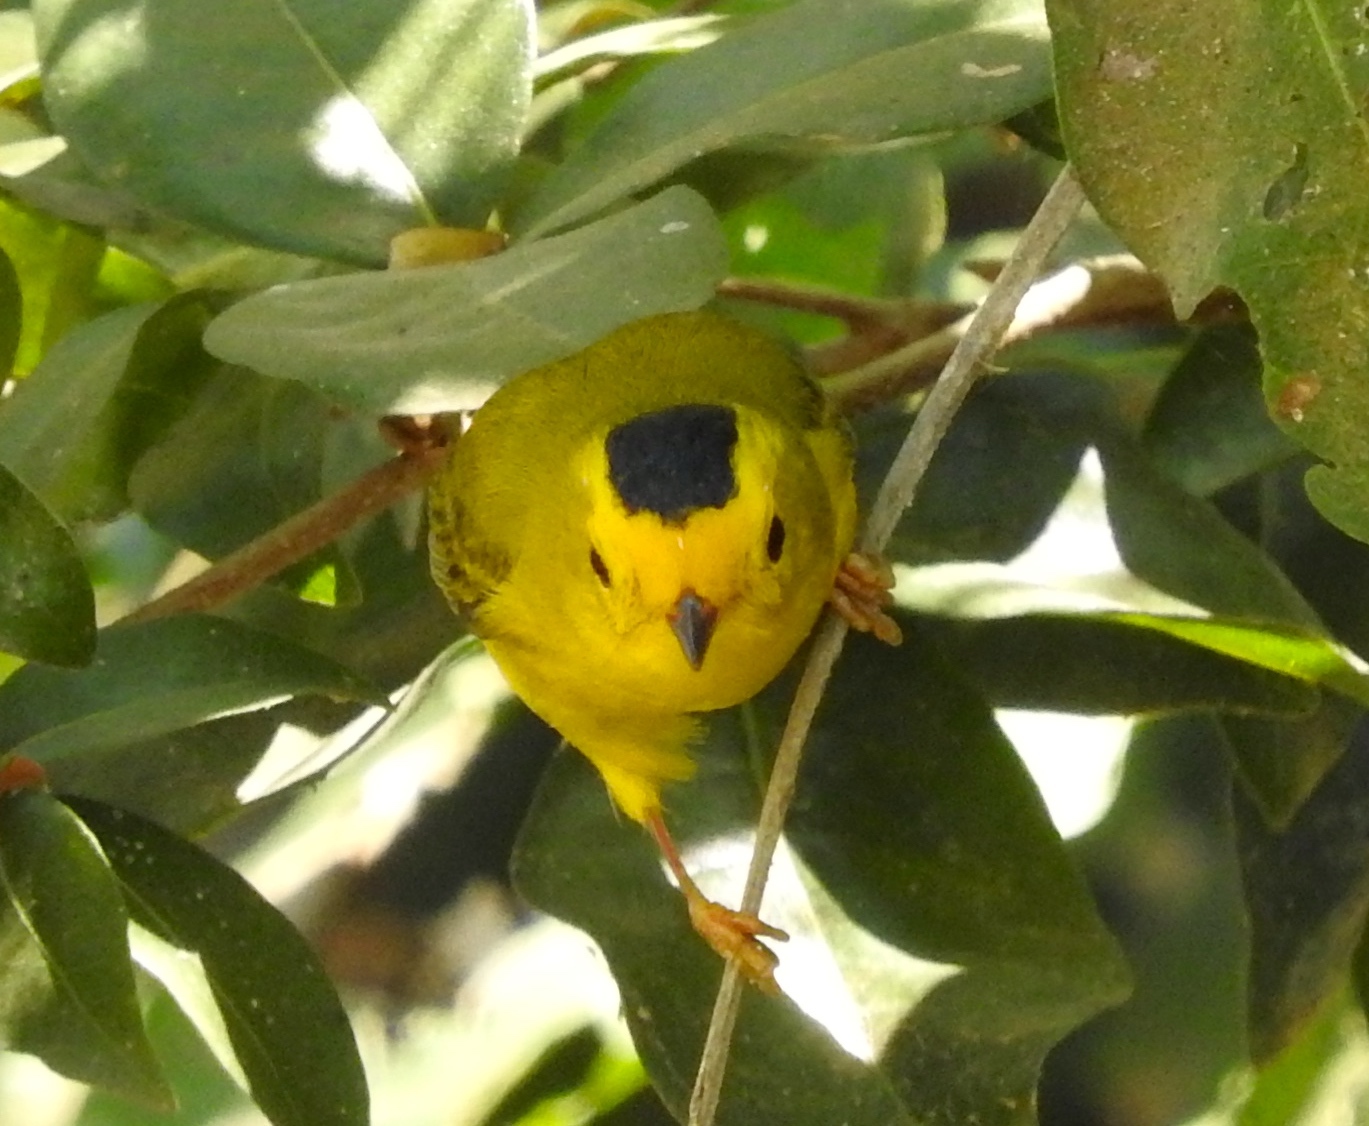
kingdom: Animalia
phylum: Chordata
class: Aves
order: Passeriformes
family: Parulidae
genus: Cardellina
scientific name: Cardellina pusilla
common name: Wilson's warbler
